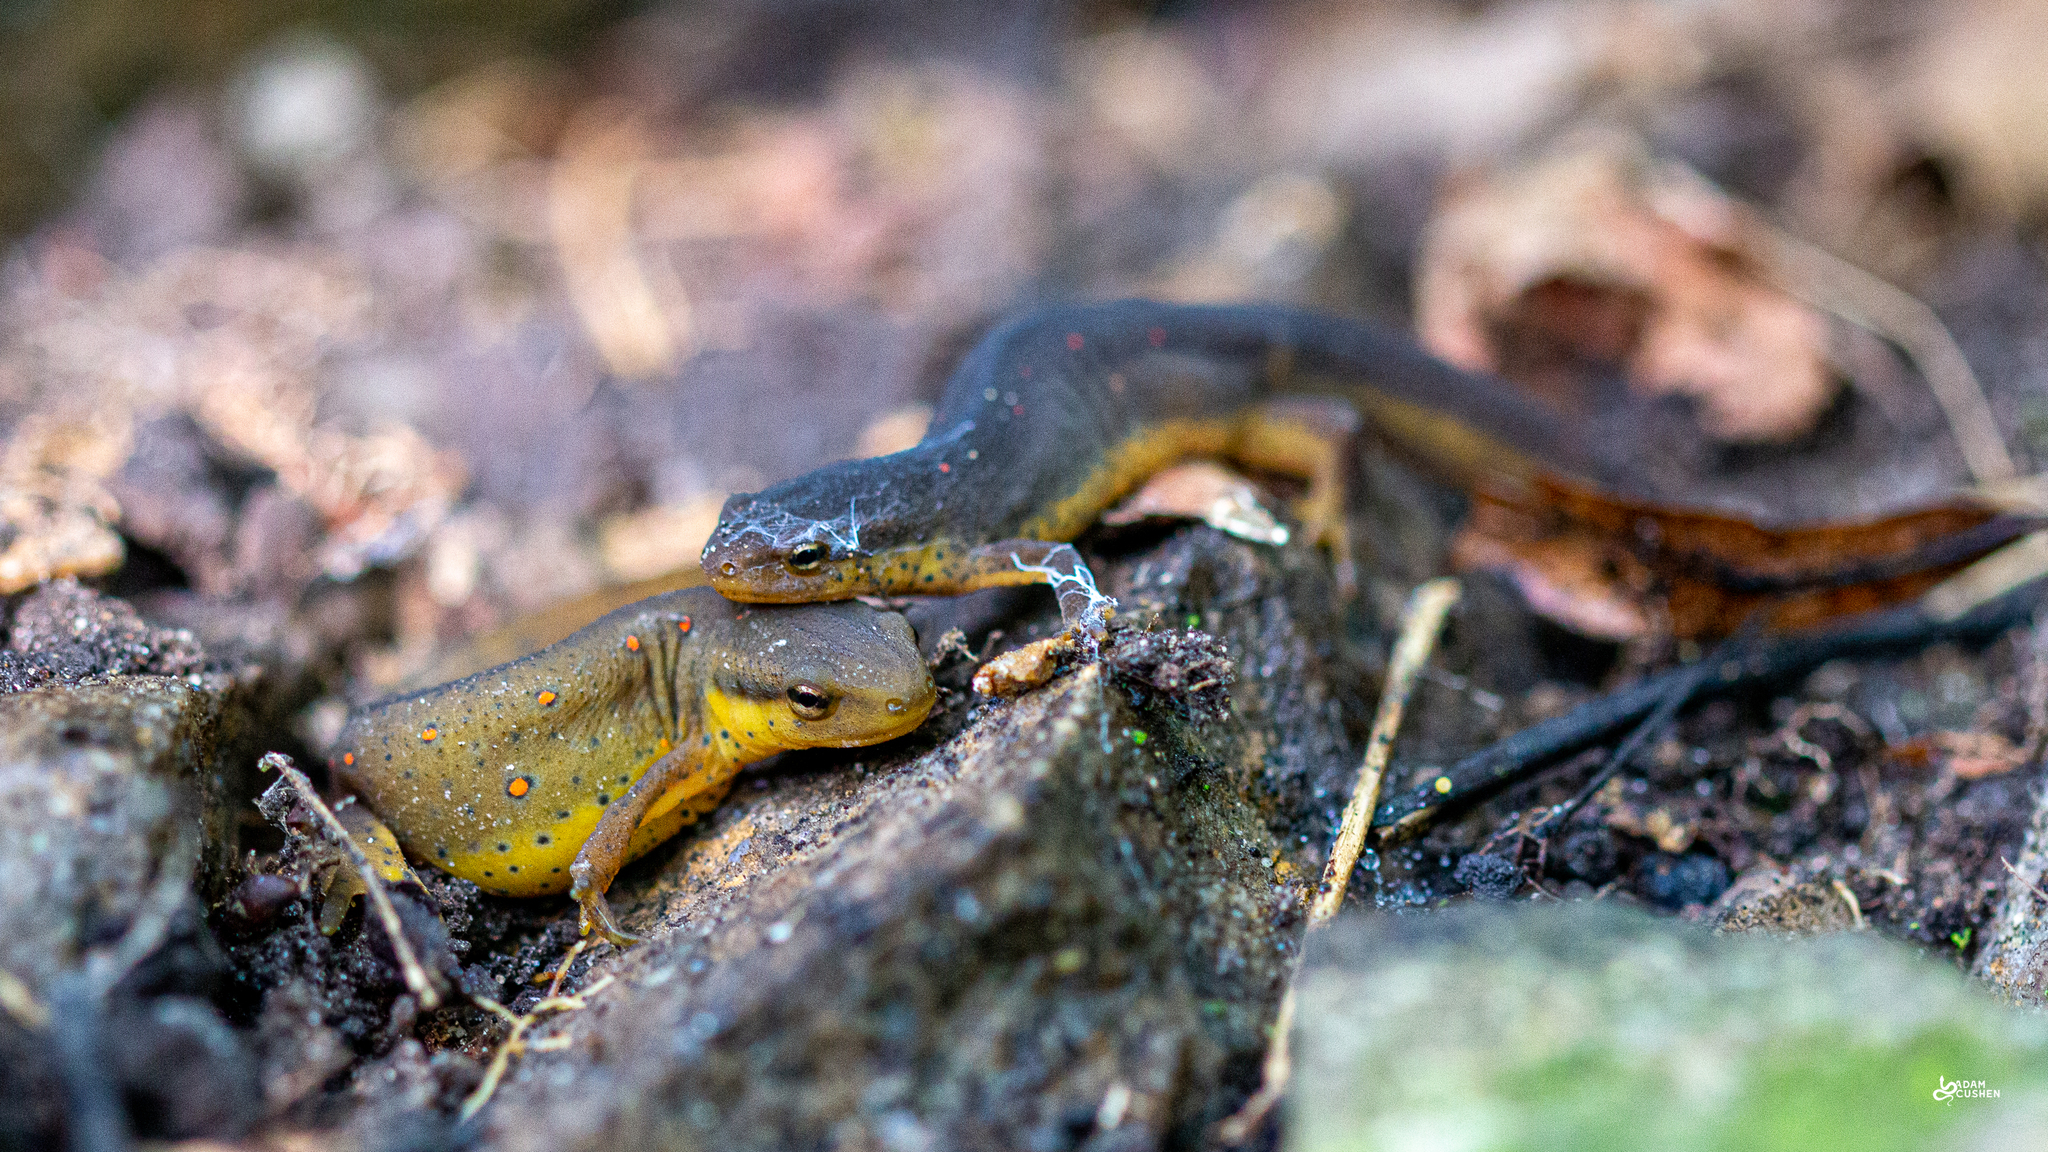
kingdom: Animalia
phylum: Chordata
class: Amphibia
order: Caudata
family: Salamandridae
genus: Notophthalmus
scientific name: Notophthalmus viridescens
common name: Eastern newt
